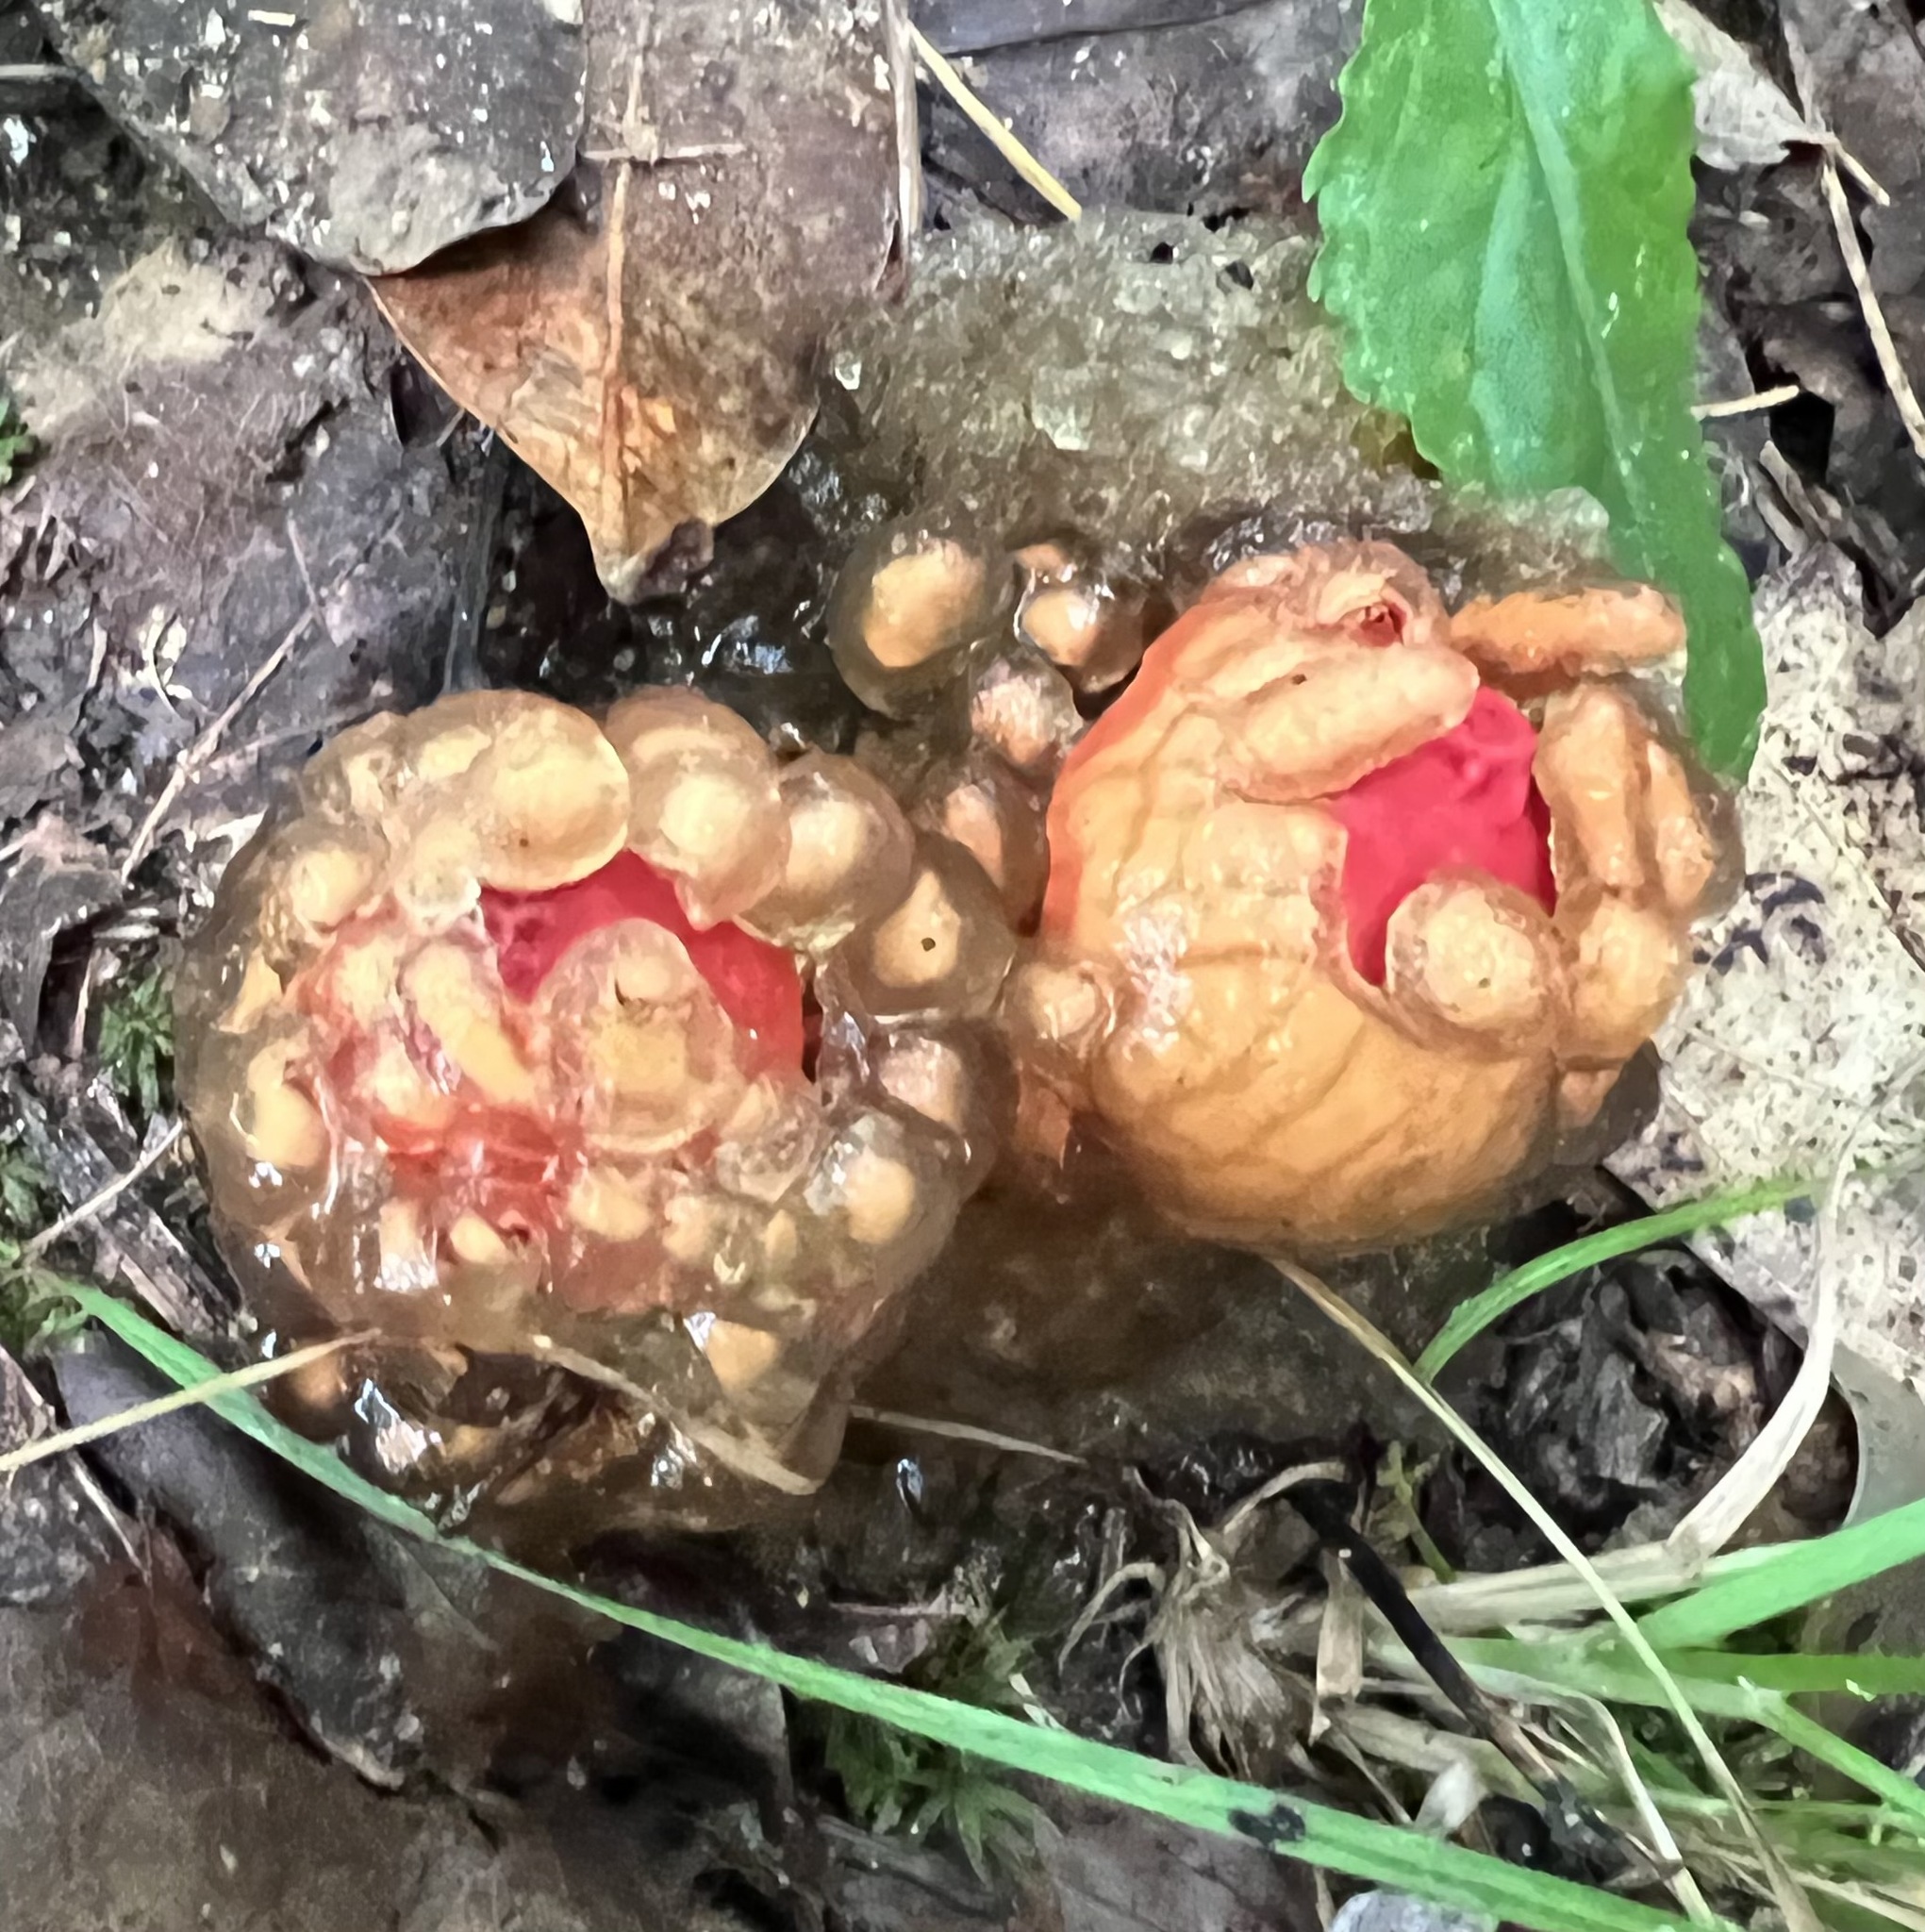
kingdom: Fungi
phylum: Basidiomycota
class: Agaricomycetes
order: Boletales
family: Calostomataceae
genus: Calostoma
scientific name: Calostoma cinnabarinum
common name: Stalked puffball-in-aspic
